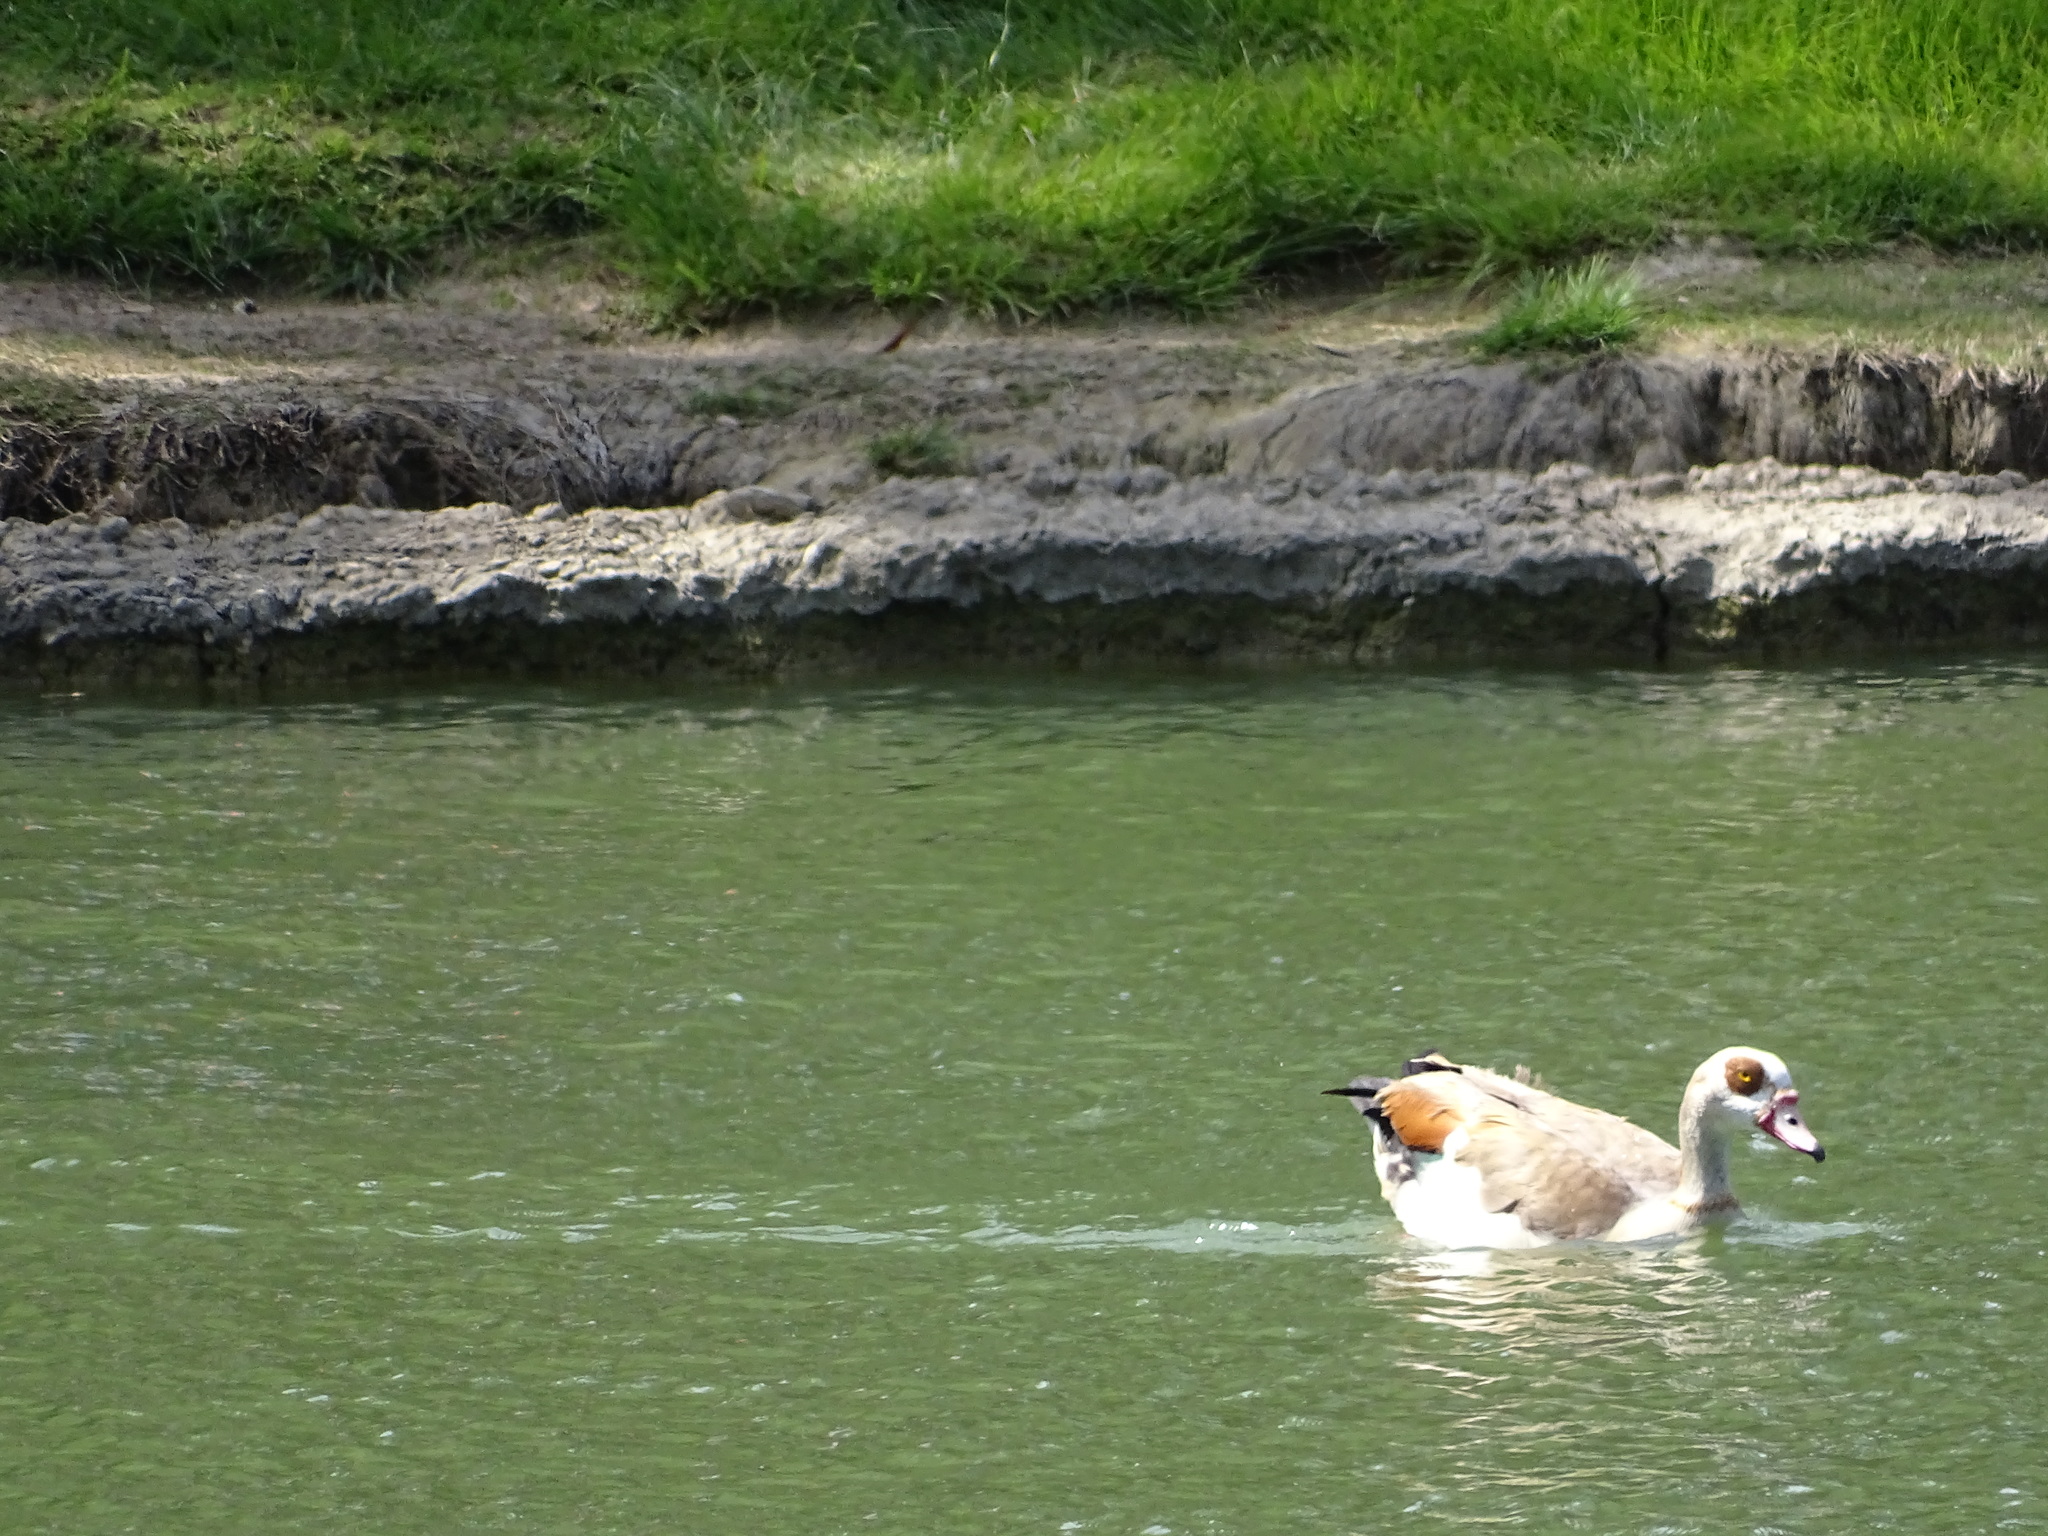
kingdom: Animalia
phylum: Chordata
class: Aves
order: Anseriformes
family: Anatidae
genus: Alopochen
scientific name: Alopochen aegyptiaca
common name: Egyptian goose
